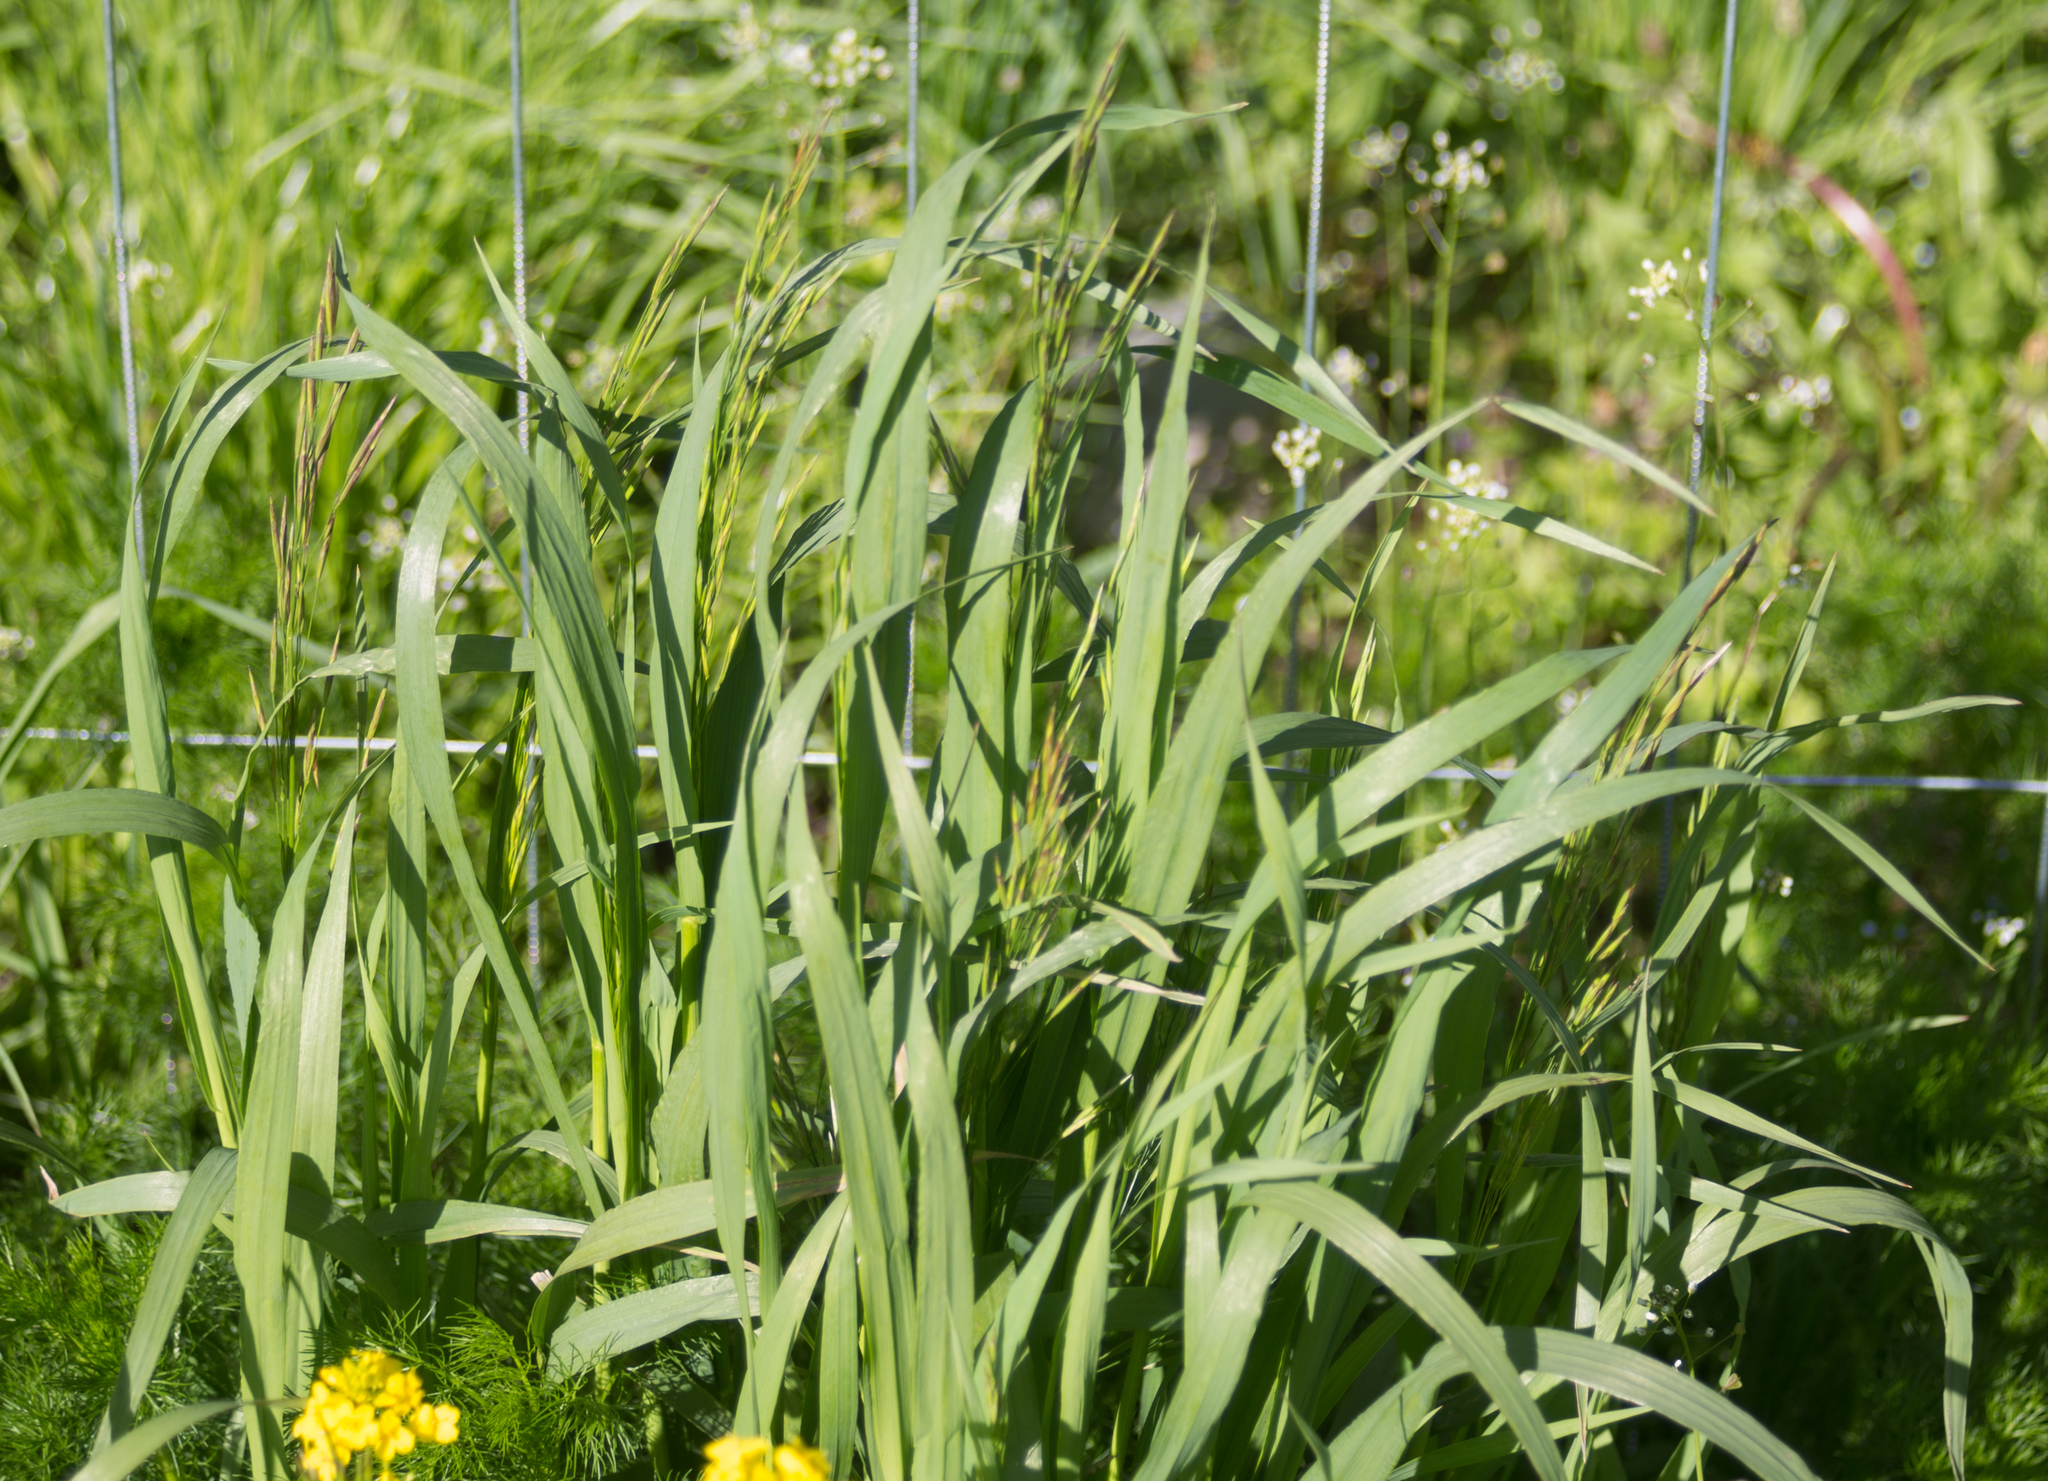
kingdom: Plantae
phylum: Tracheophyta
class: Liliopsida
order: Poales
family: Poaceae
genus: Bromus
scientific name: Bromus inermis
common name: Smooth brome
